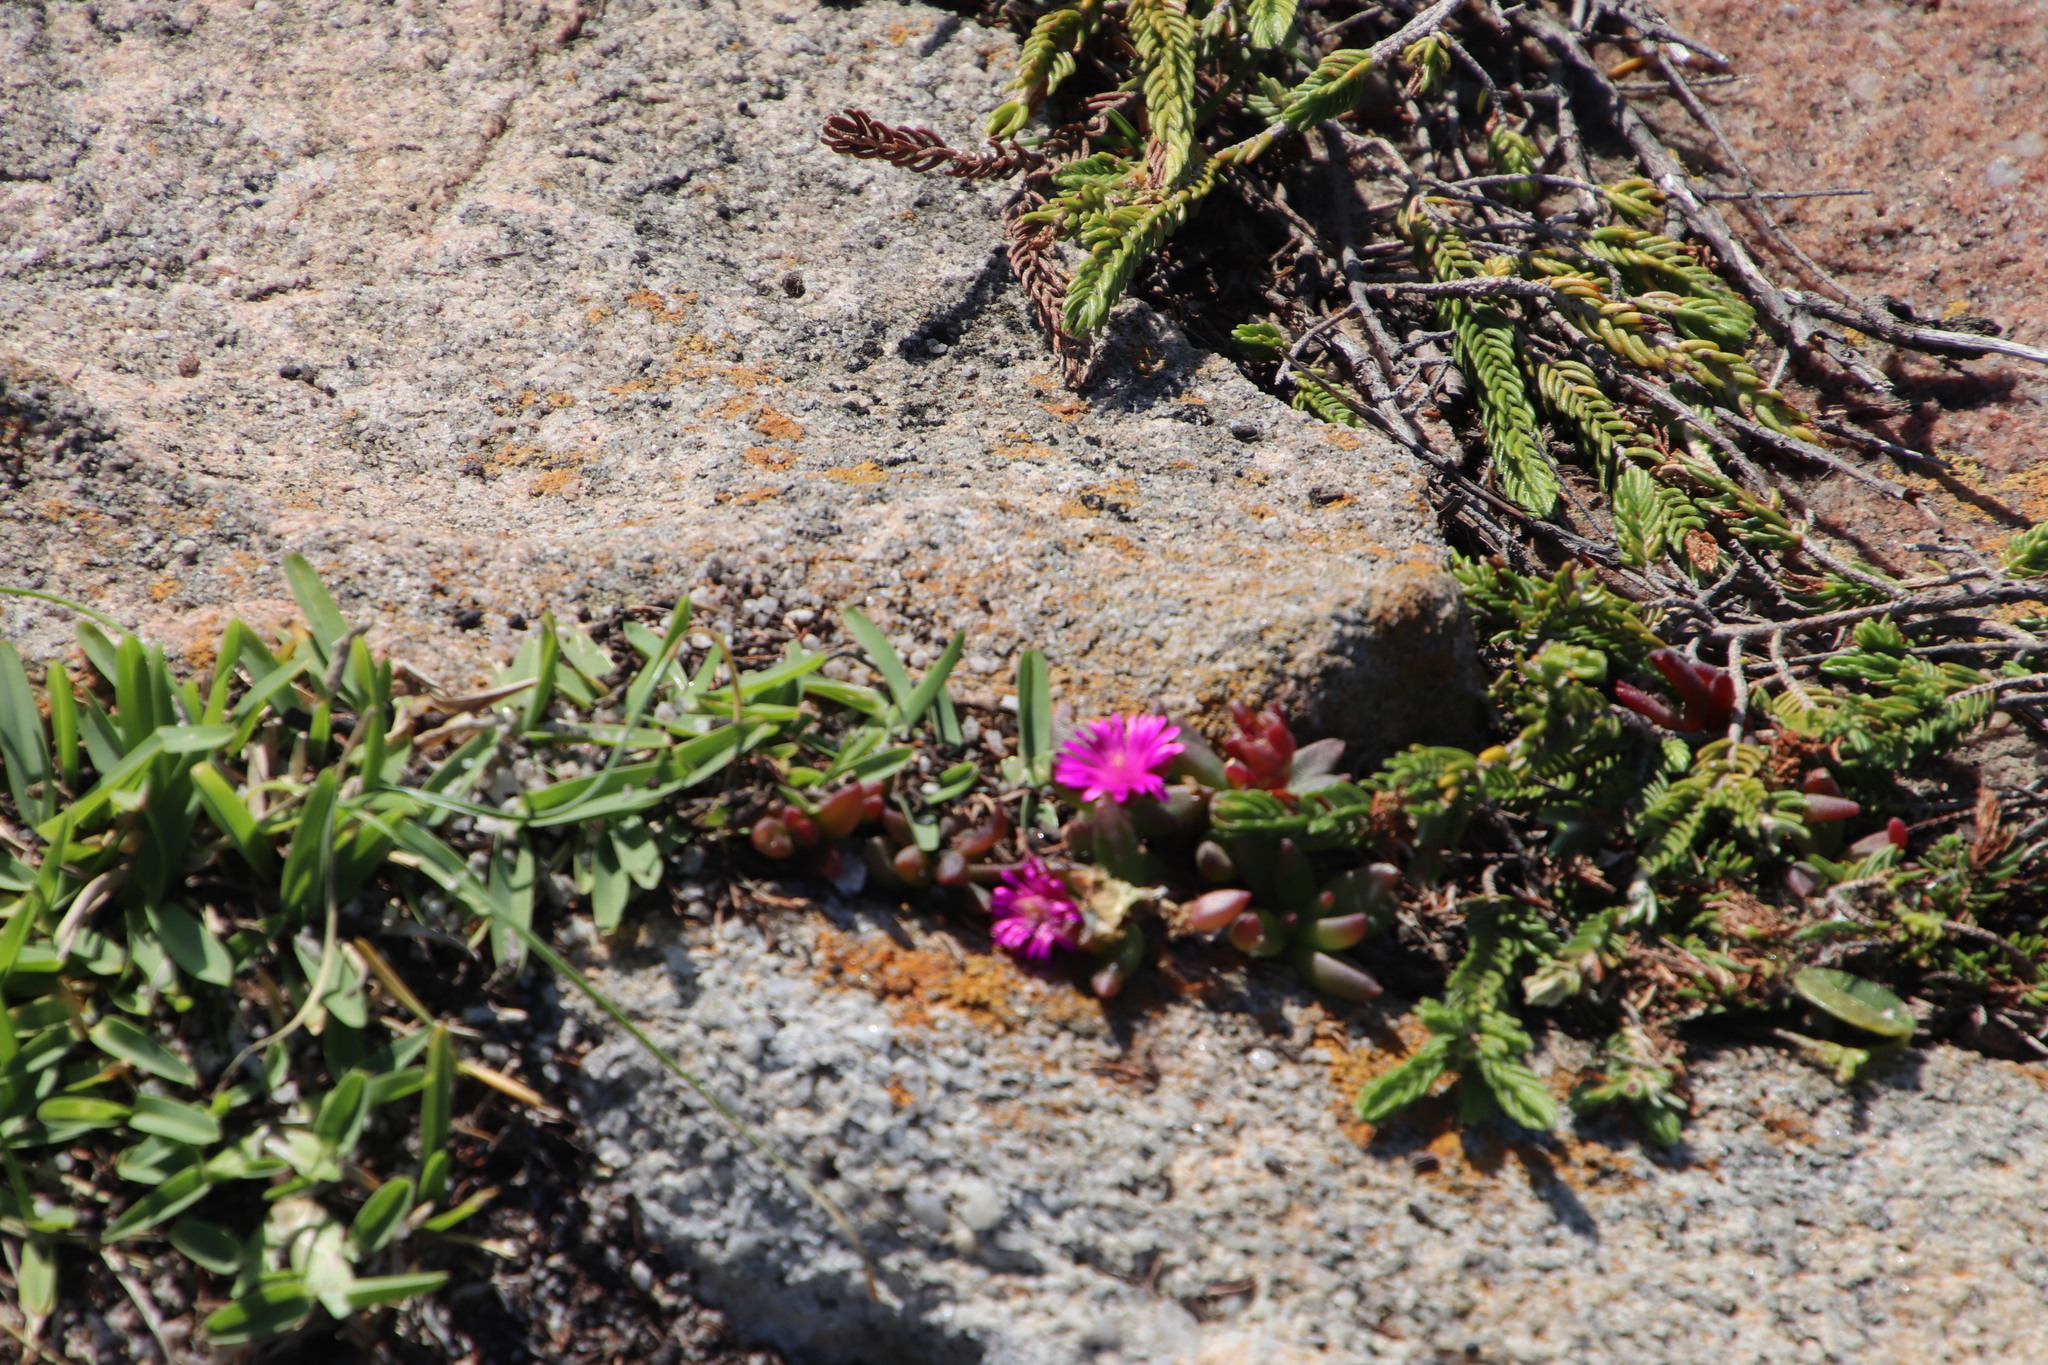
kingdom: Plantae
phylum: Tracheophyta
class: Magnoliopsida
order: Caryophyllales
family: Aizoaceae
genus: Delosperma
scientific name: Delosperma repens
